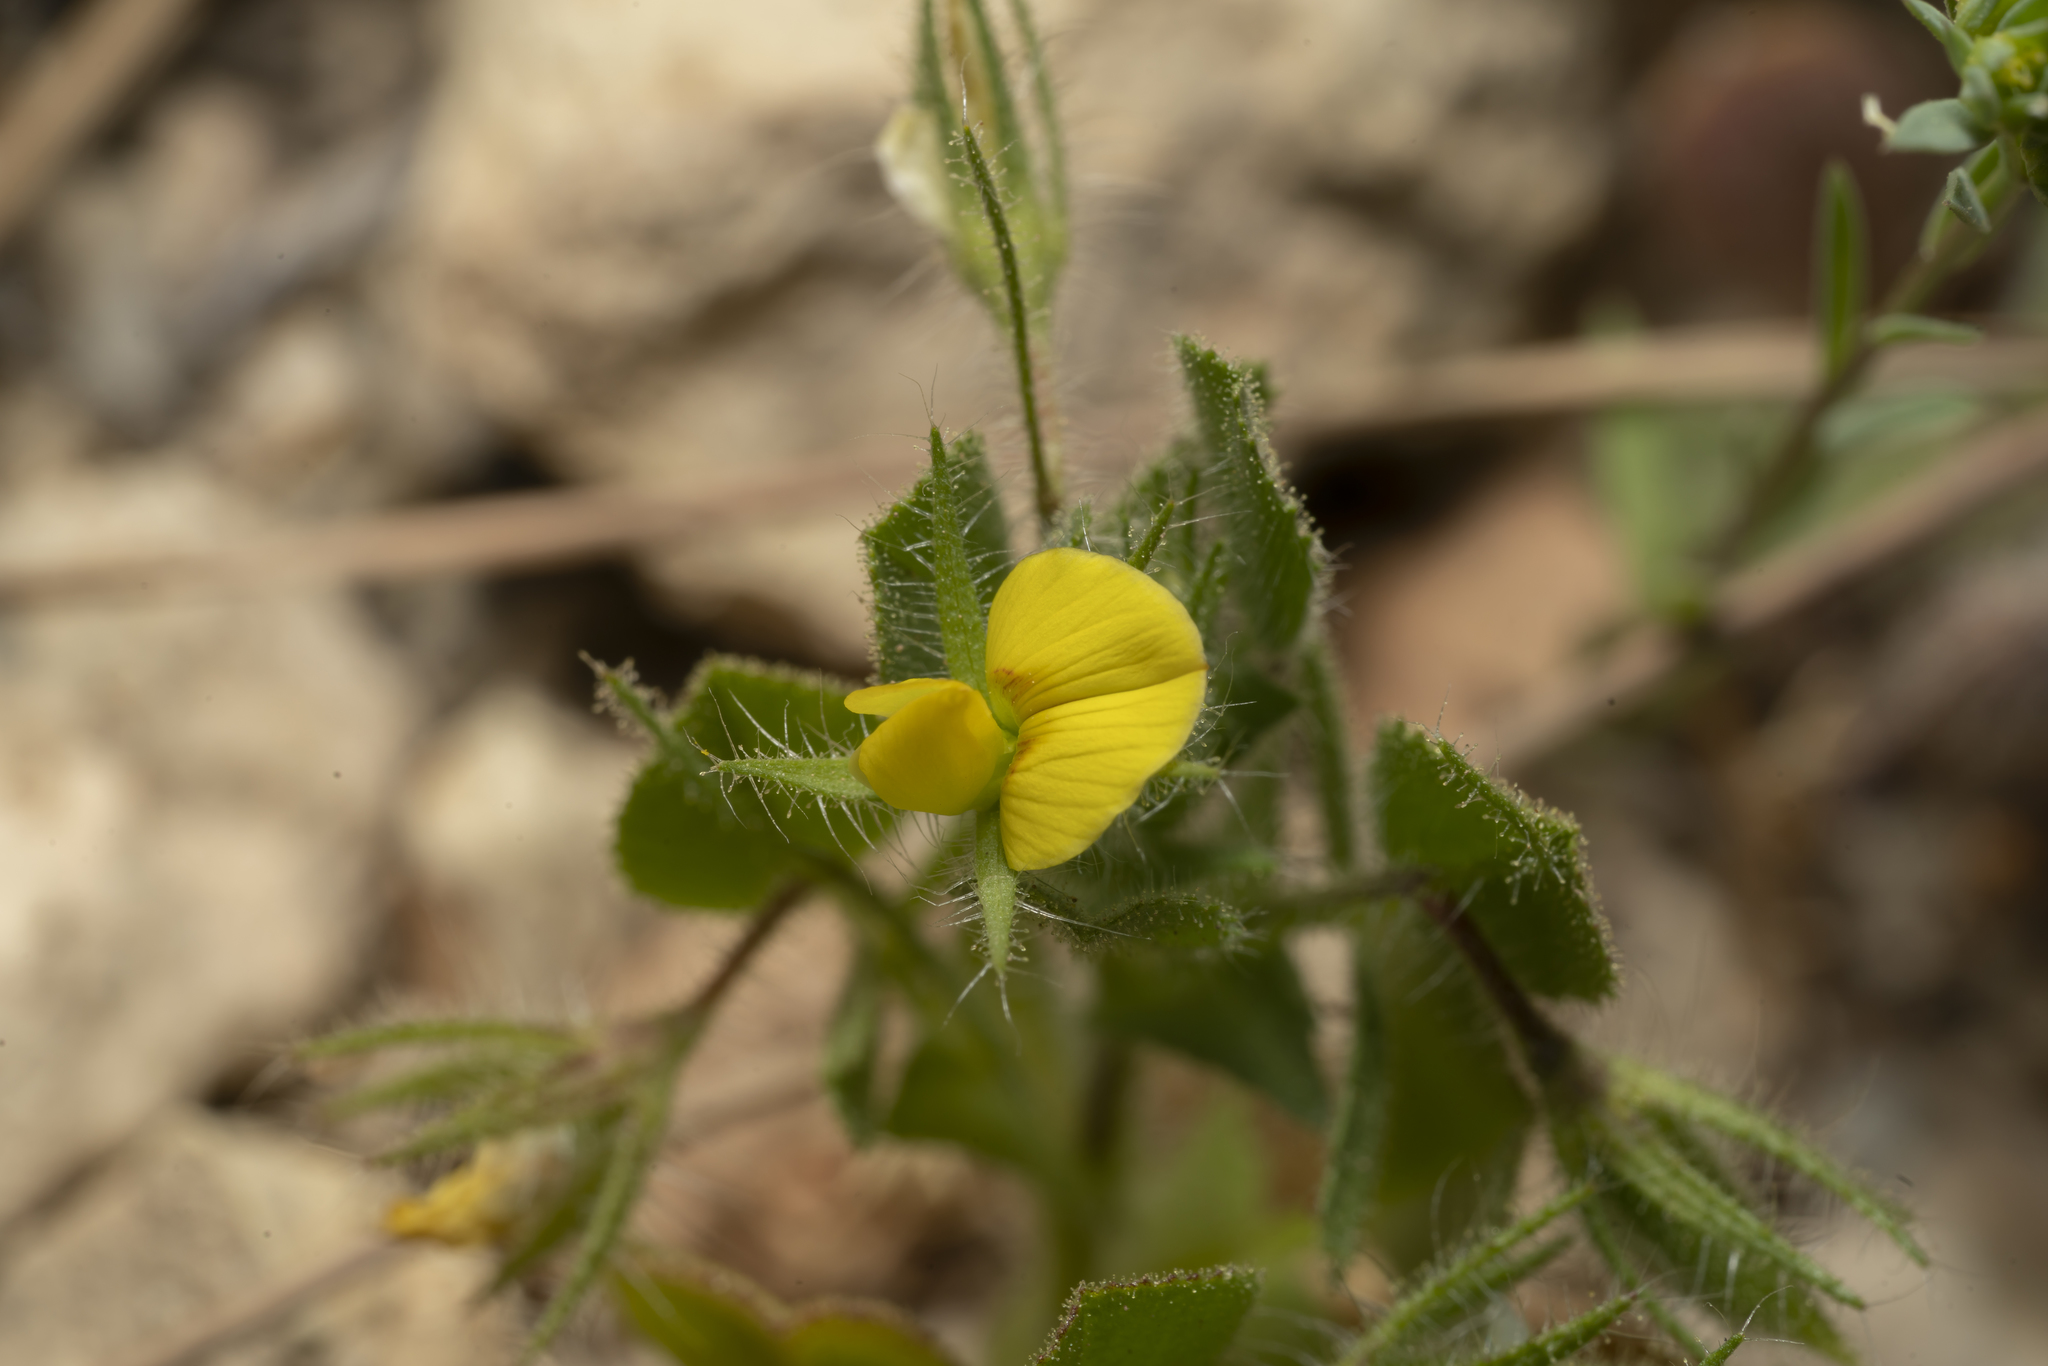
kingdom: Plantae
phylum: Tracheophyta
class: Magnoliopsida
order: Fabales
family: Fabaceae
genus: Ononis
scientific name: Ononis viscosa
